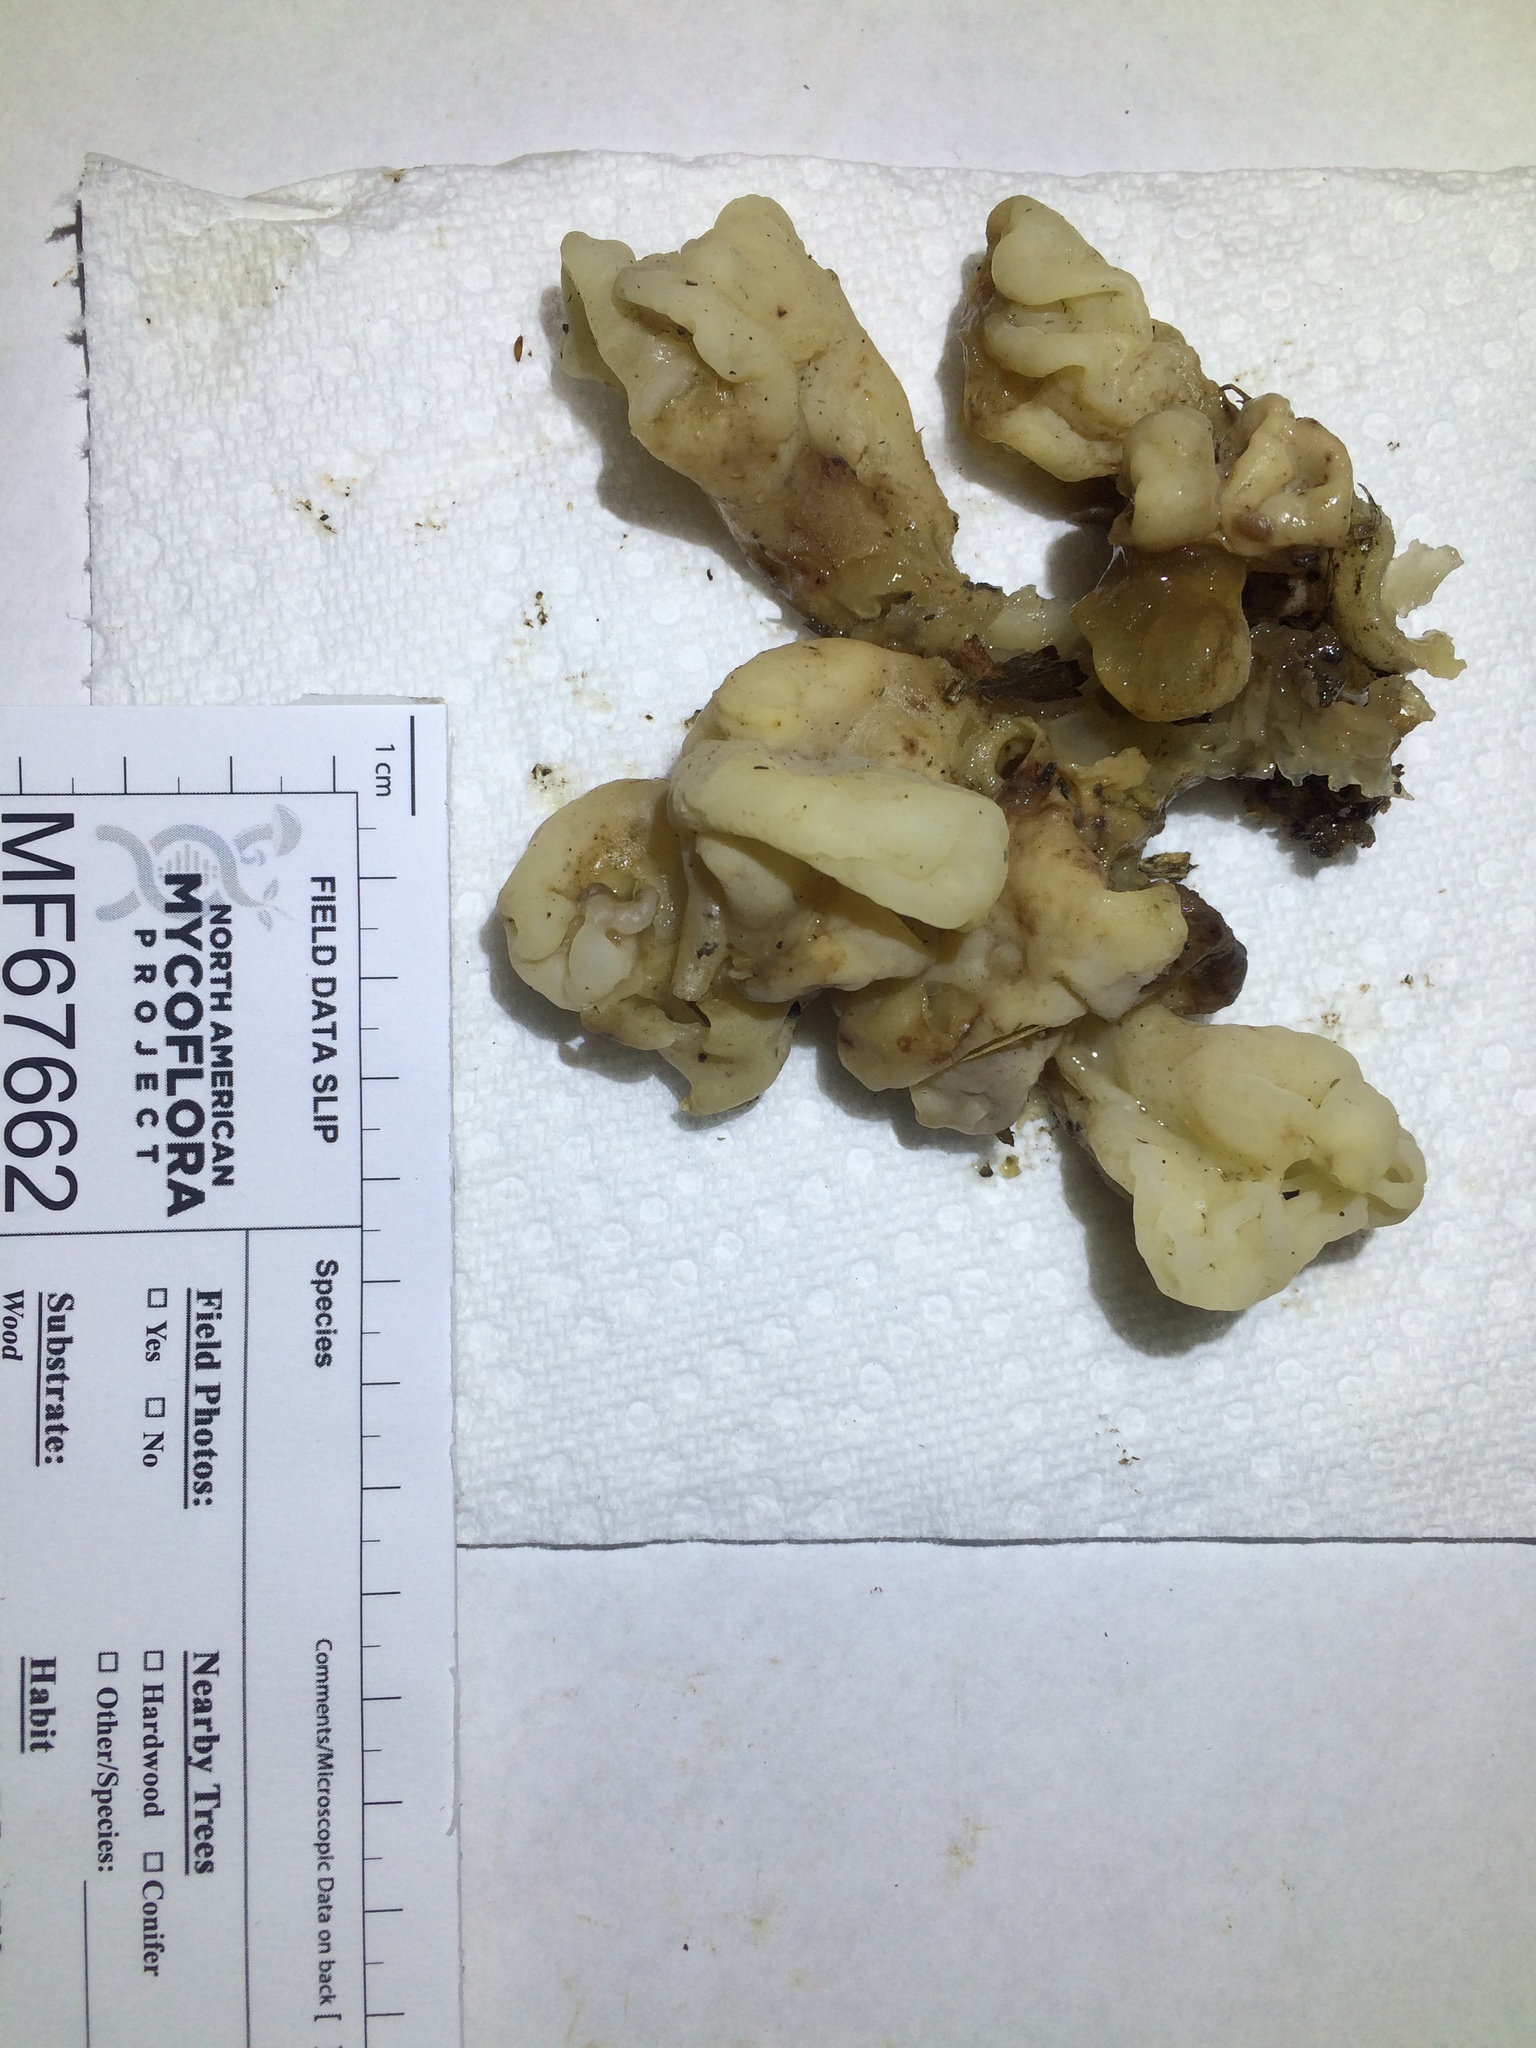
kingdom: Fungi
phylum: Basidiomycota
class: Agaricomycetes
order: Sebacinales
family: Sebacinaceae
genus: Sebacina
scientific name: Sebacina sparassoidea
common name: White coral jelly fungus
